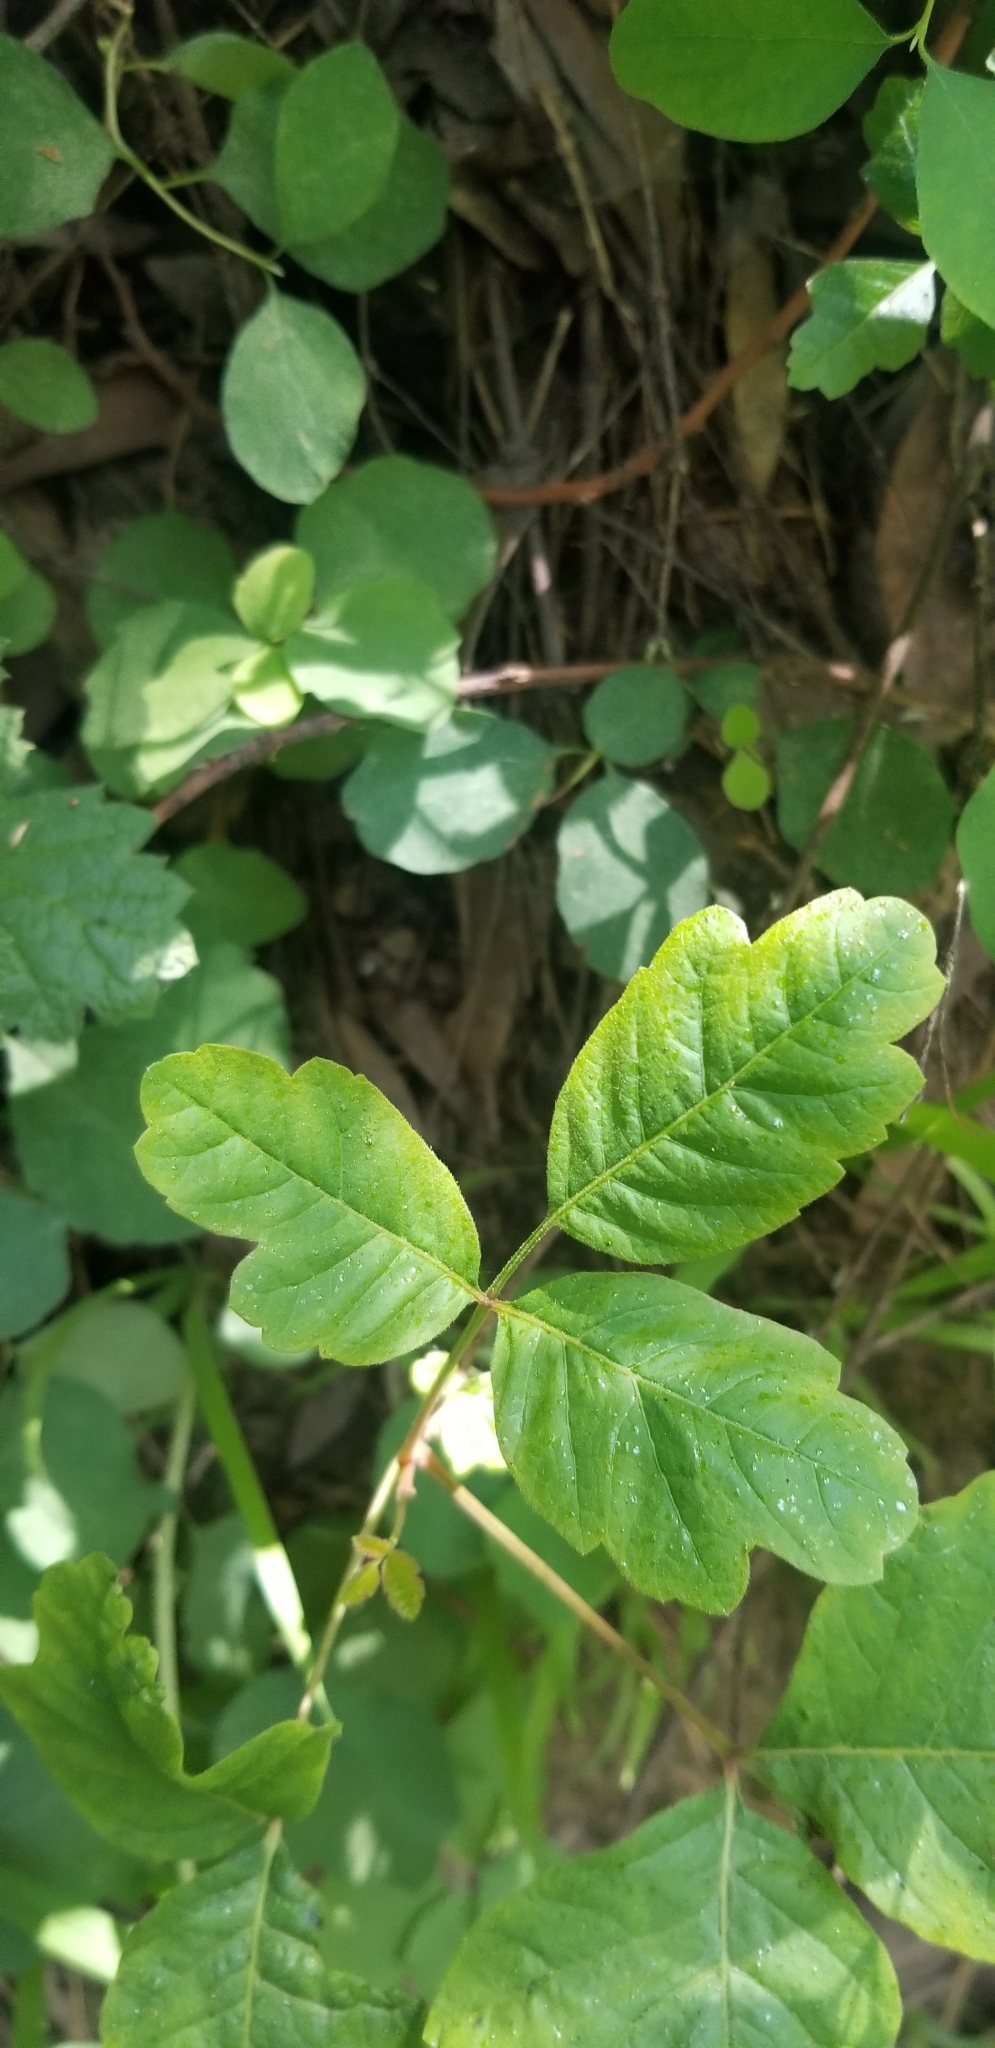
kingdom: Plantae
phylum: Tracheophyta
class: Magnoliopsida
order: Sapindales
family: Anacardiaceae
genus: Toxicodendron
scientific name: Toxicodendron diversilobum
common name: Pacific poison-oak
